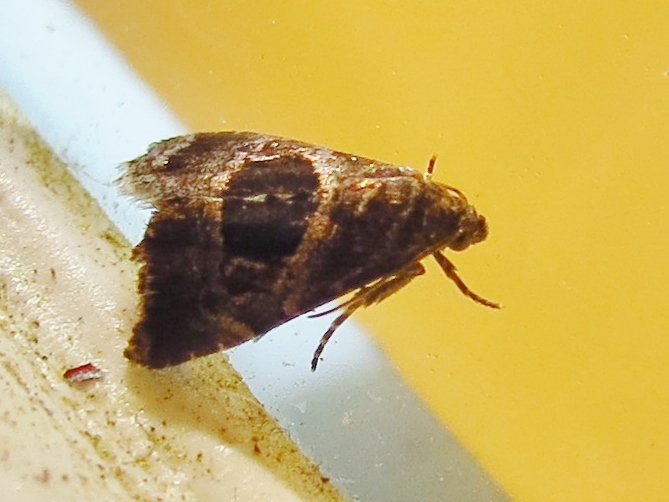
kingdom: Animalia
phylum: Arthropoda
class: Insecta
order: Lepidoptera
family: Noctuidae
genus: Tripudia
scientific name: Tripudia quadrifera
